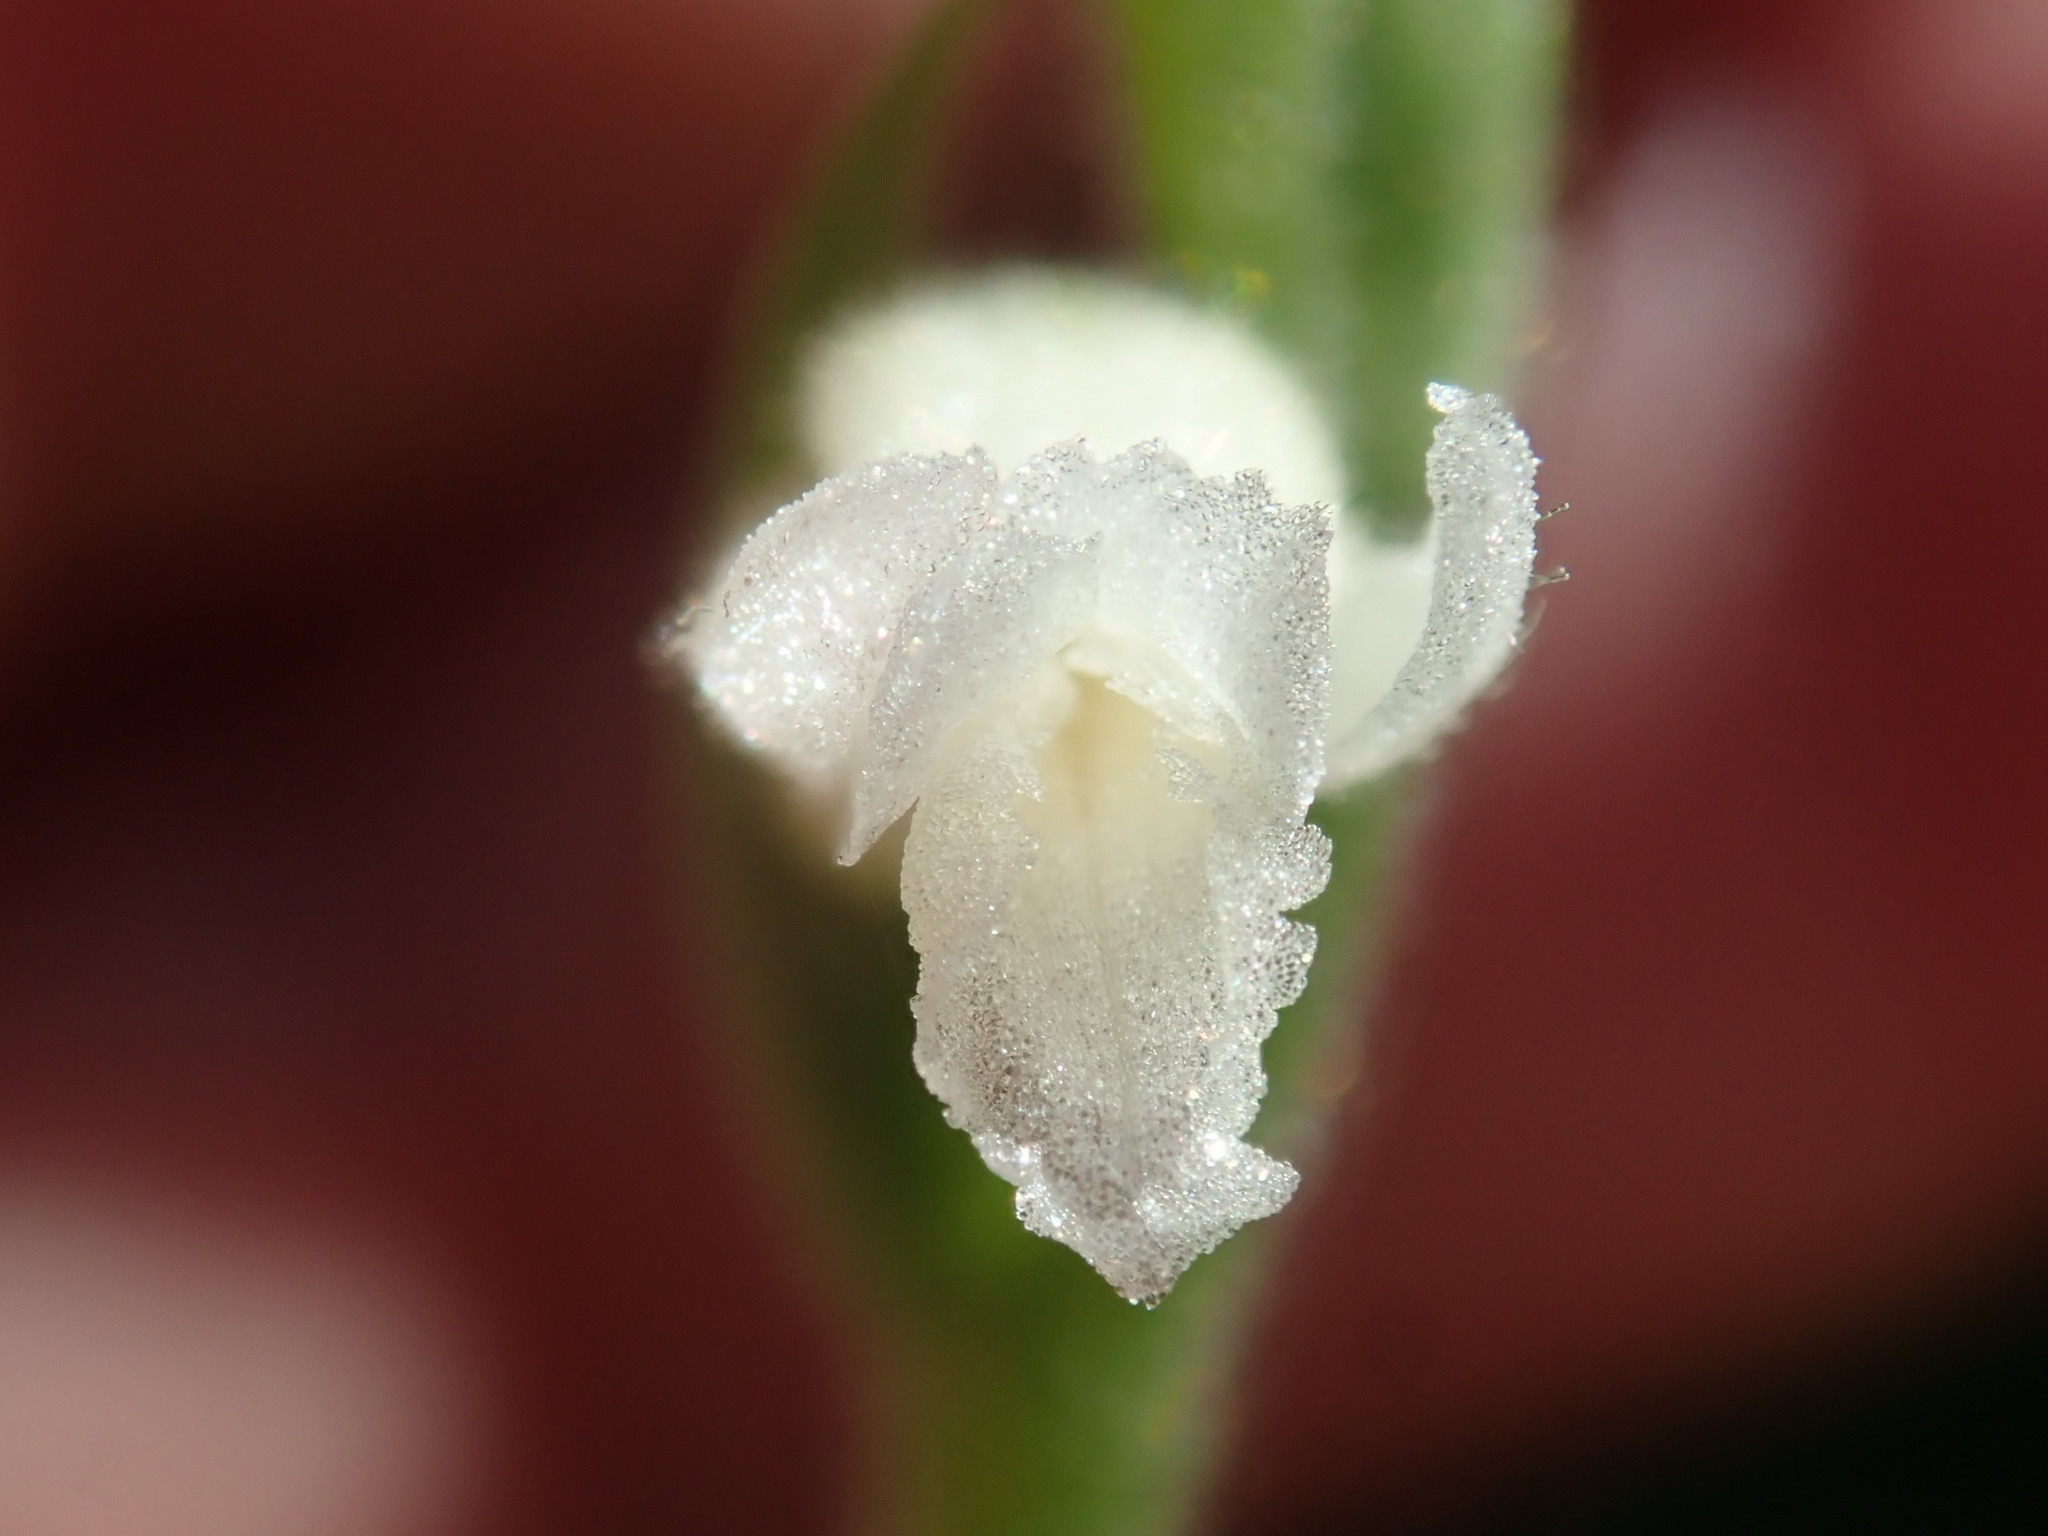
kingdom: Plantae
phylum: Tracheophyta
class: Liliopsida
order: Asparagales
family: Orchidaceae
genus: Spiranthes
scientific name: Spiranthes cernua
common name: Dropping ladies'-tresses
